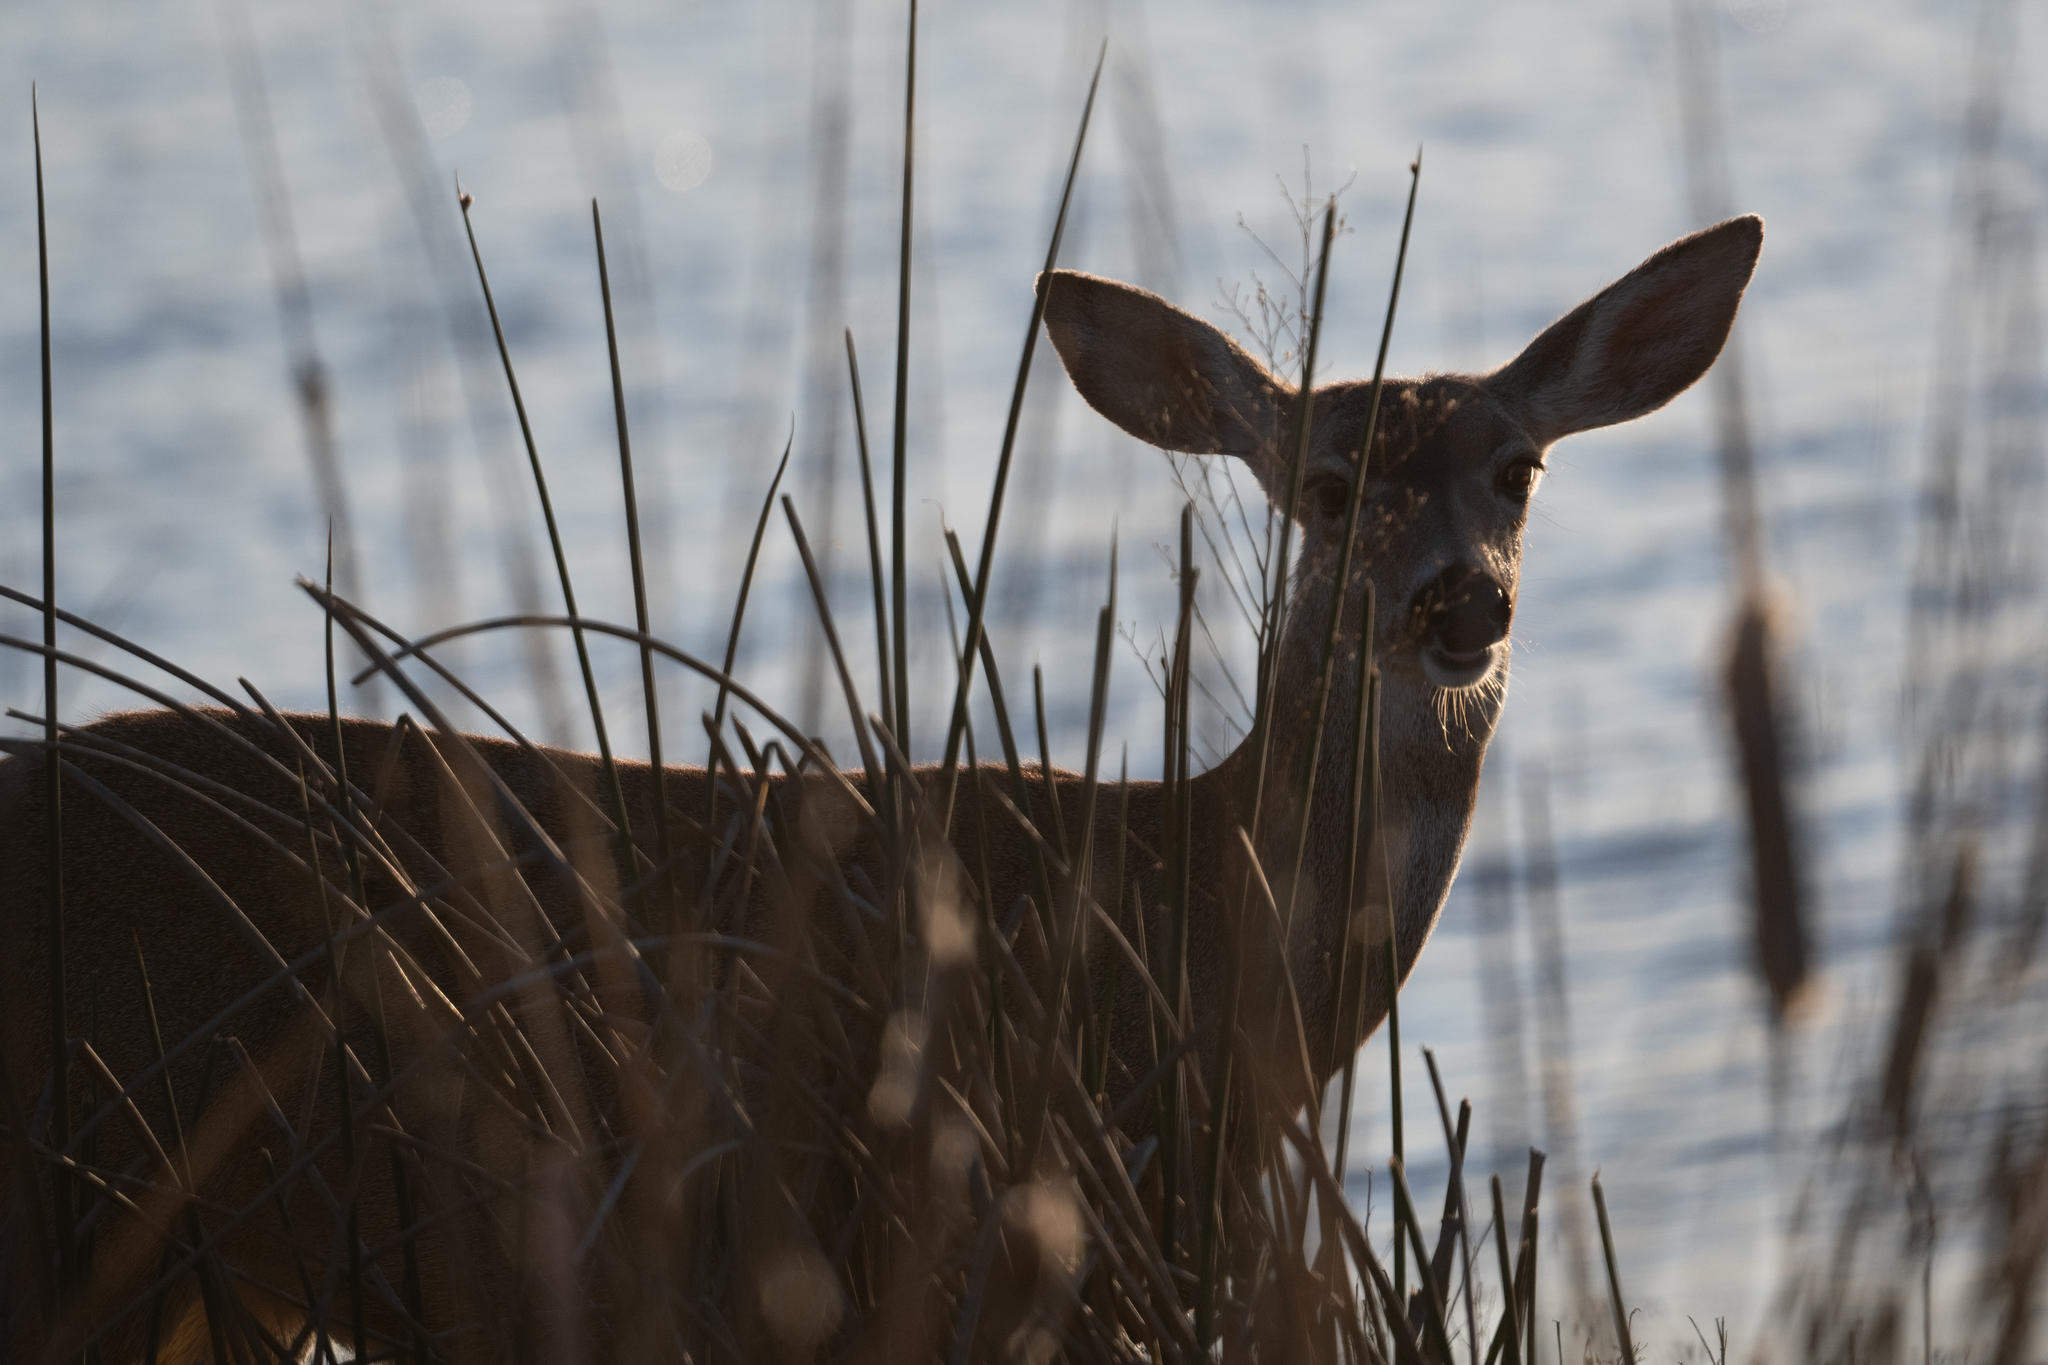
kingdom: Animalia
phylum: Chordata
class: Mammalia
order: Artiodactyla
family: Cervidae
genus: Odocoileus
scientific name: Odocoileus hemionus
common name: Mule deer
